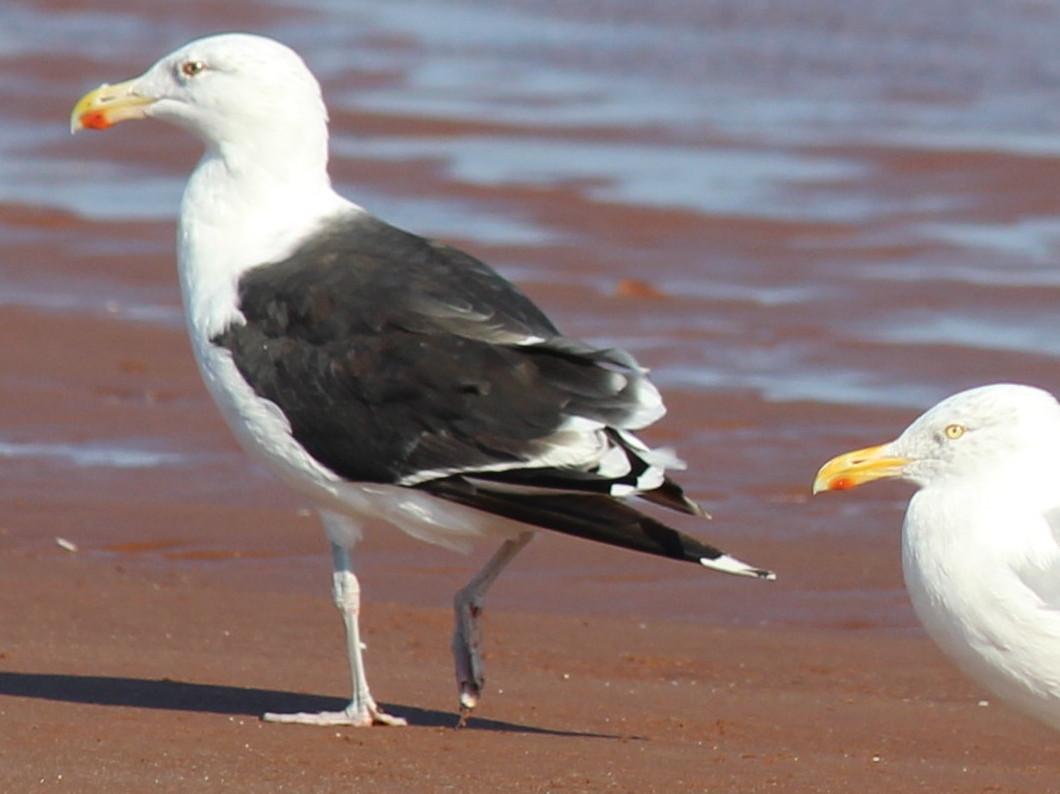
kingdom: Animalia
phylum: Chordata
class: Aves
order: Charadriiformes
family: Laridae
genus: Larus
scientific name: Larus marinus
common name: Great black-backed gull
